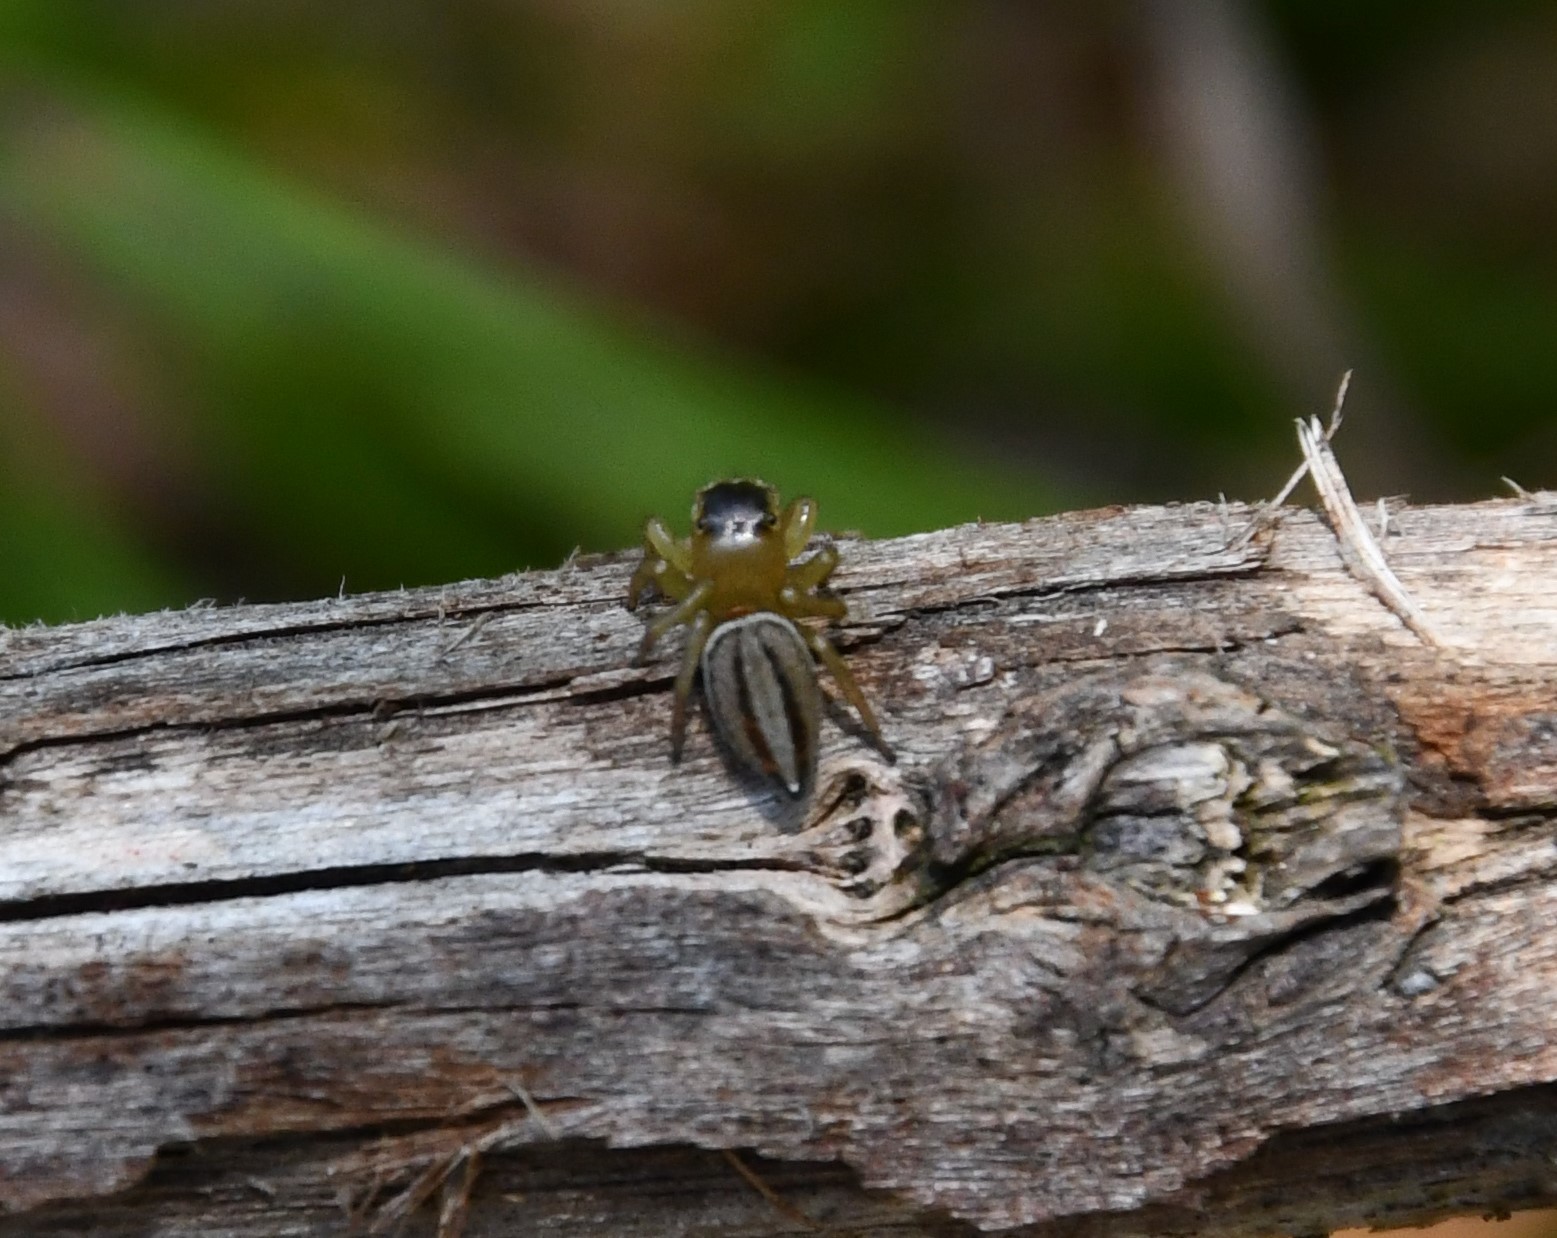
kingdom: Animalia
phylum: Arthropoda
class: Arachnida
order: Araneae
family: Salticidae
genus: Maratus
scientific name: Maratus scutulatus
